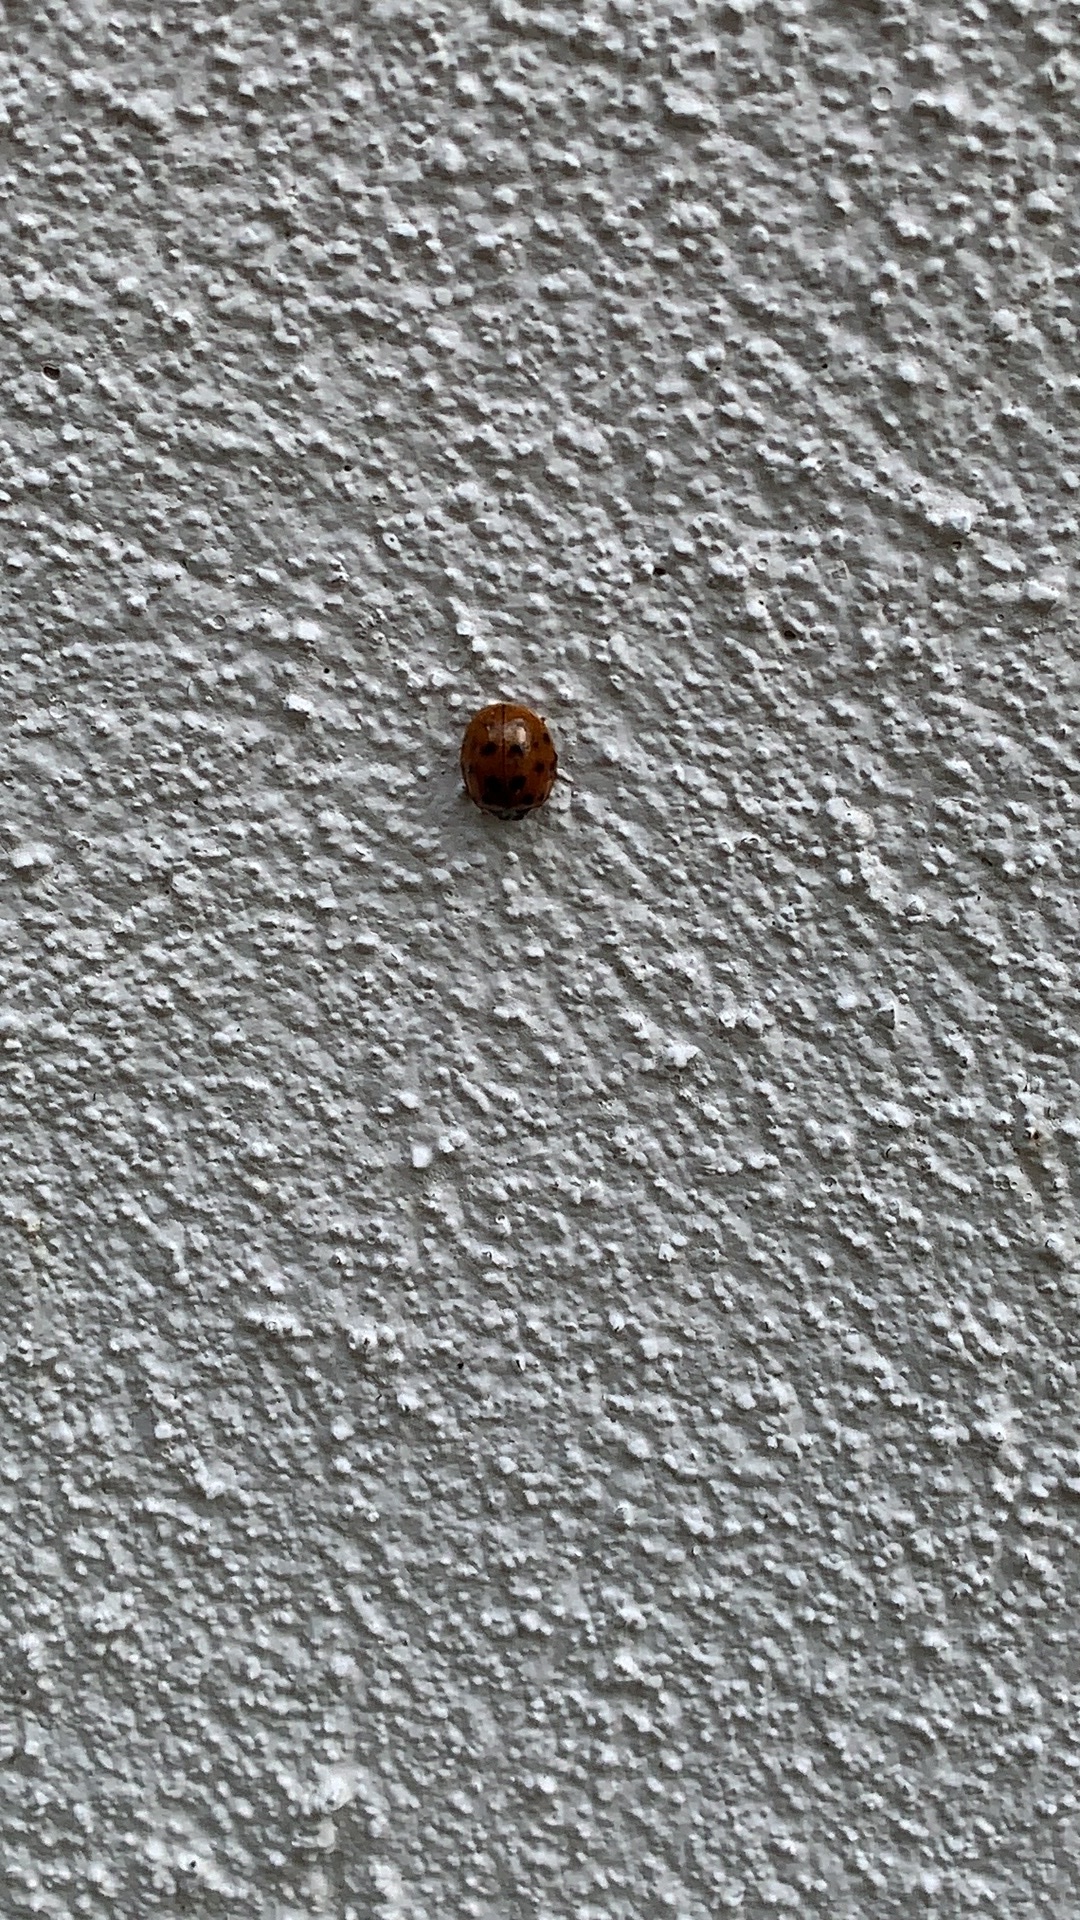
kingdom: Animalia
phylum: Arthropoda
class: Insecta
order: Coleoptera
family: Coccinellidae
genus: Harmonia
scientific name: Harmonia axyridis
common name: Harlequin ladybird
